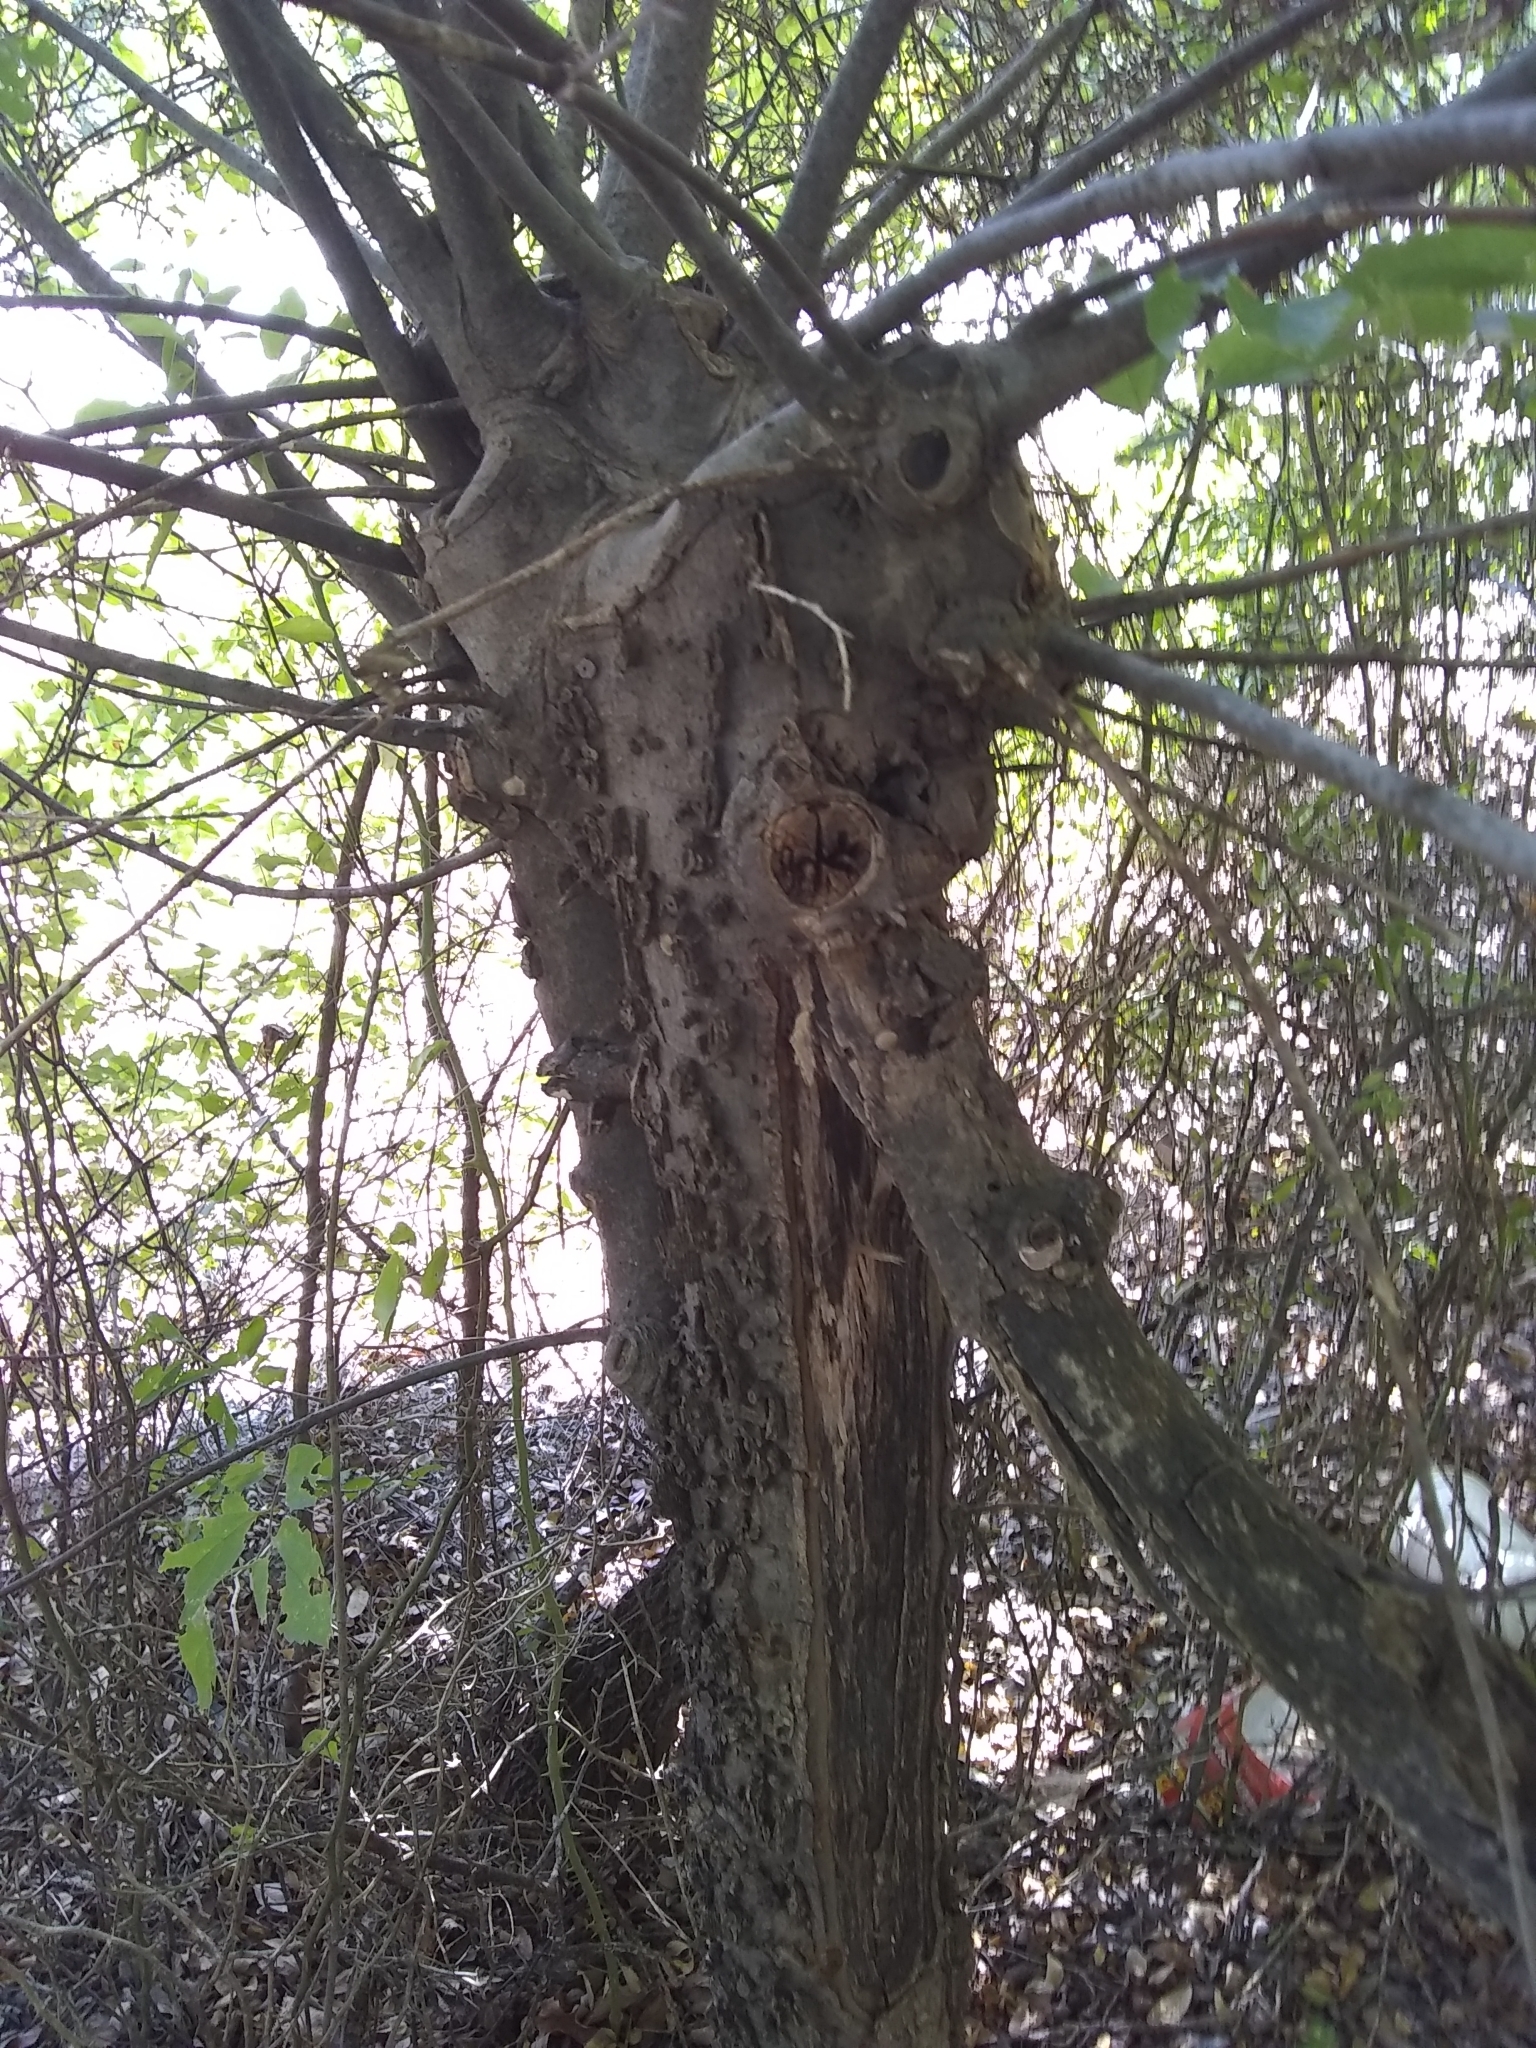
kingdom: Plantae
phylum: Tracheophyta
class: Magnoliopsida
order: Rosales
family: Cannabaceae
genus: Celtis
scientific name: Celtis laevigata
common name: Sugarberry
